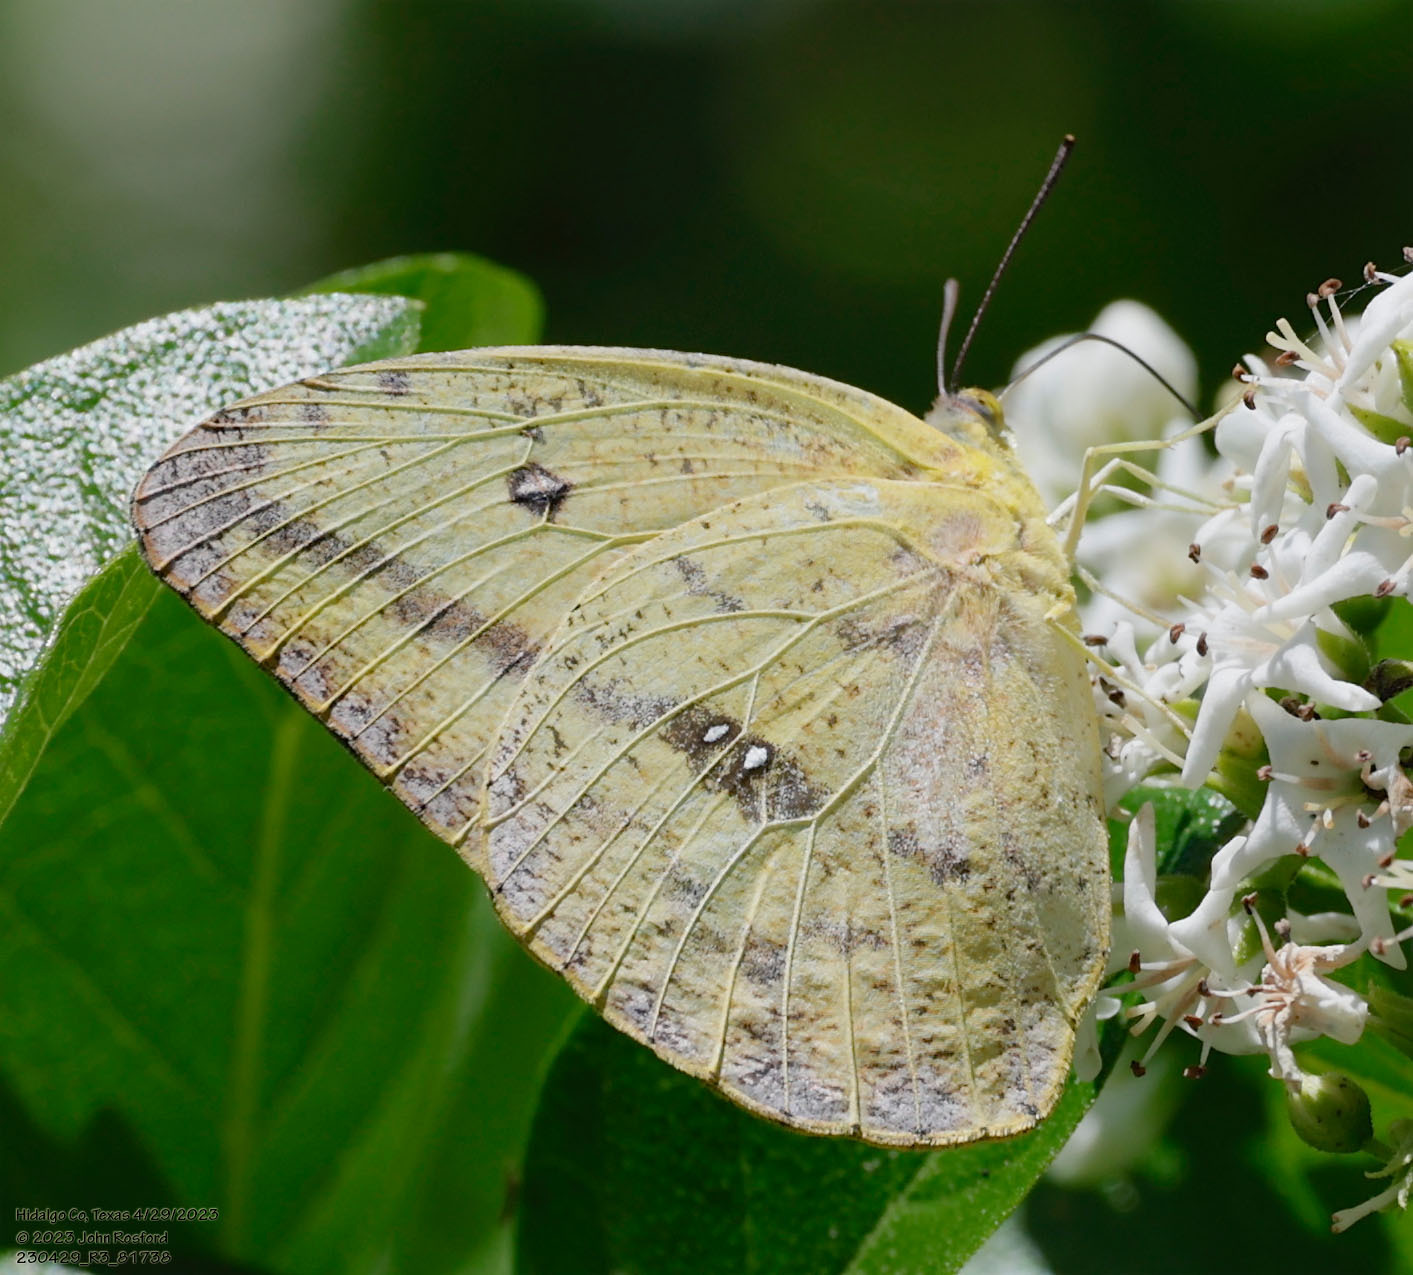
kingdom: Animalia
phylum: Arthropoda
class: Insecta
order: Lepidoptera
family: Pieridae
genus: Phoebis
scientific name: Phoebis agarithe
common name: Large orange sulphur
